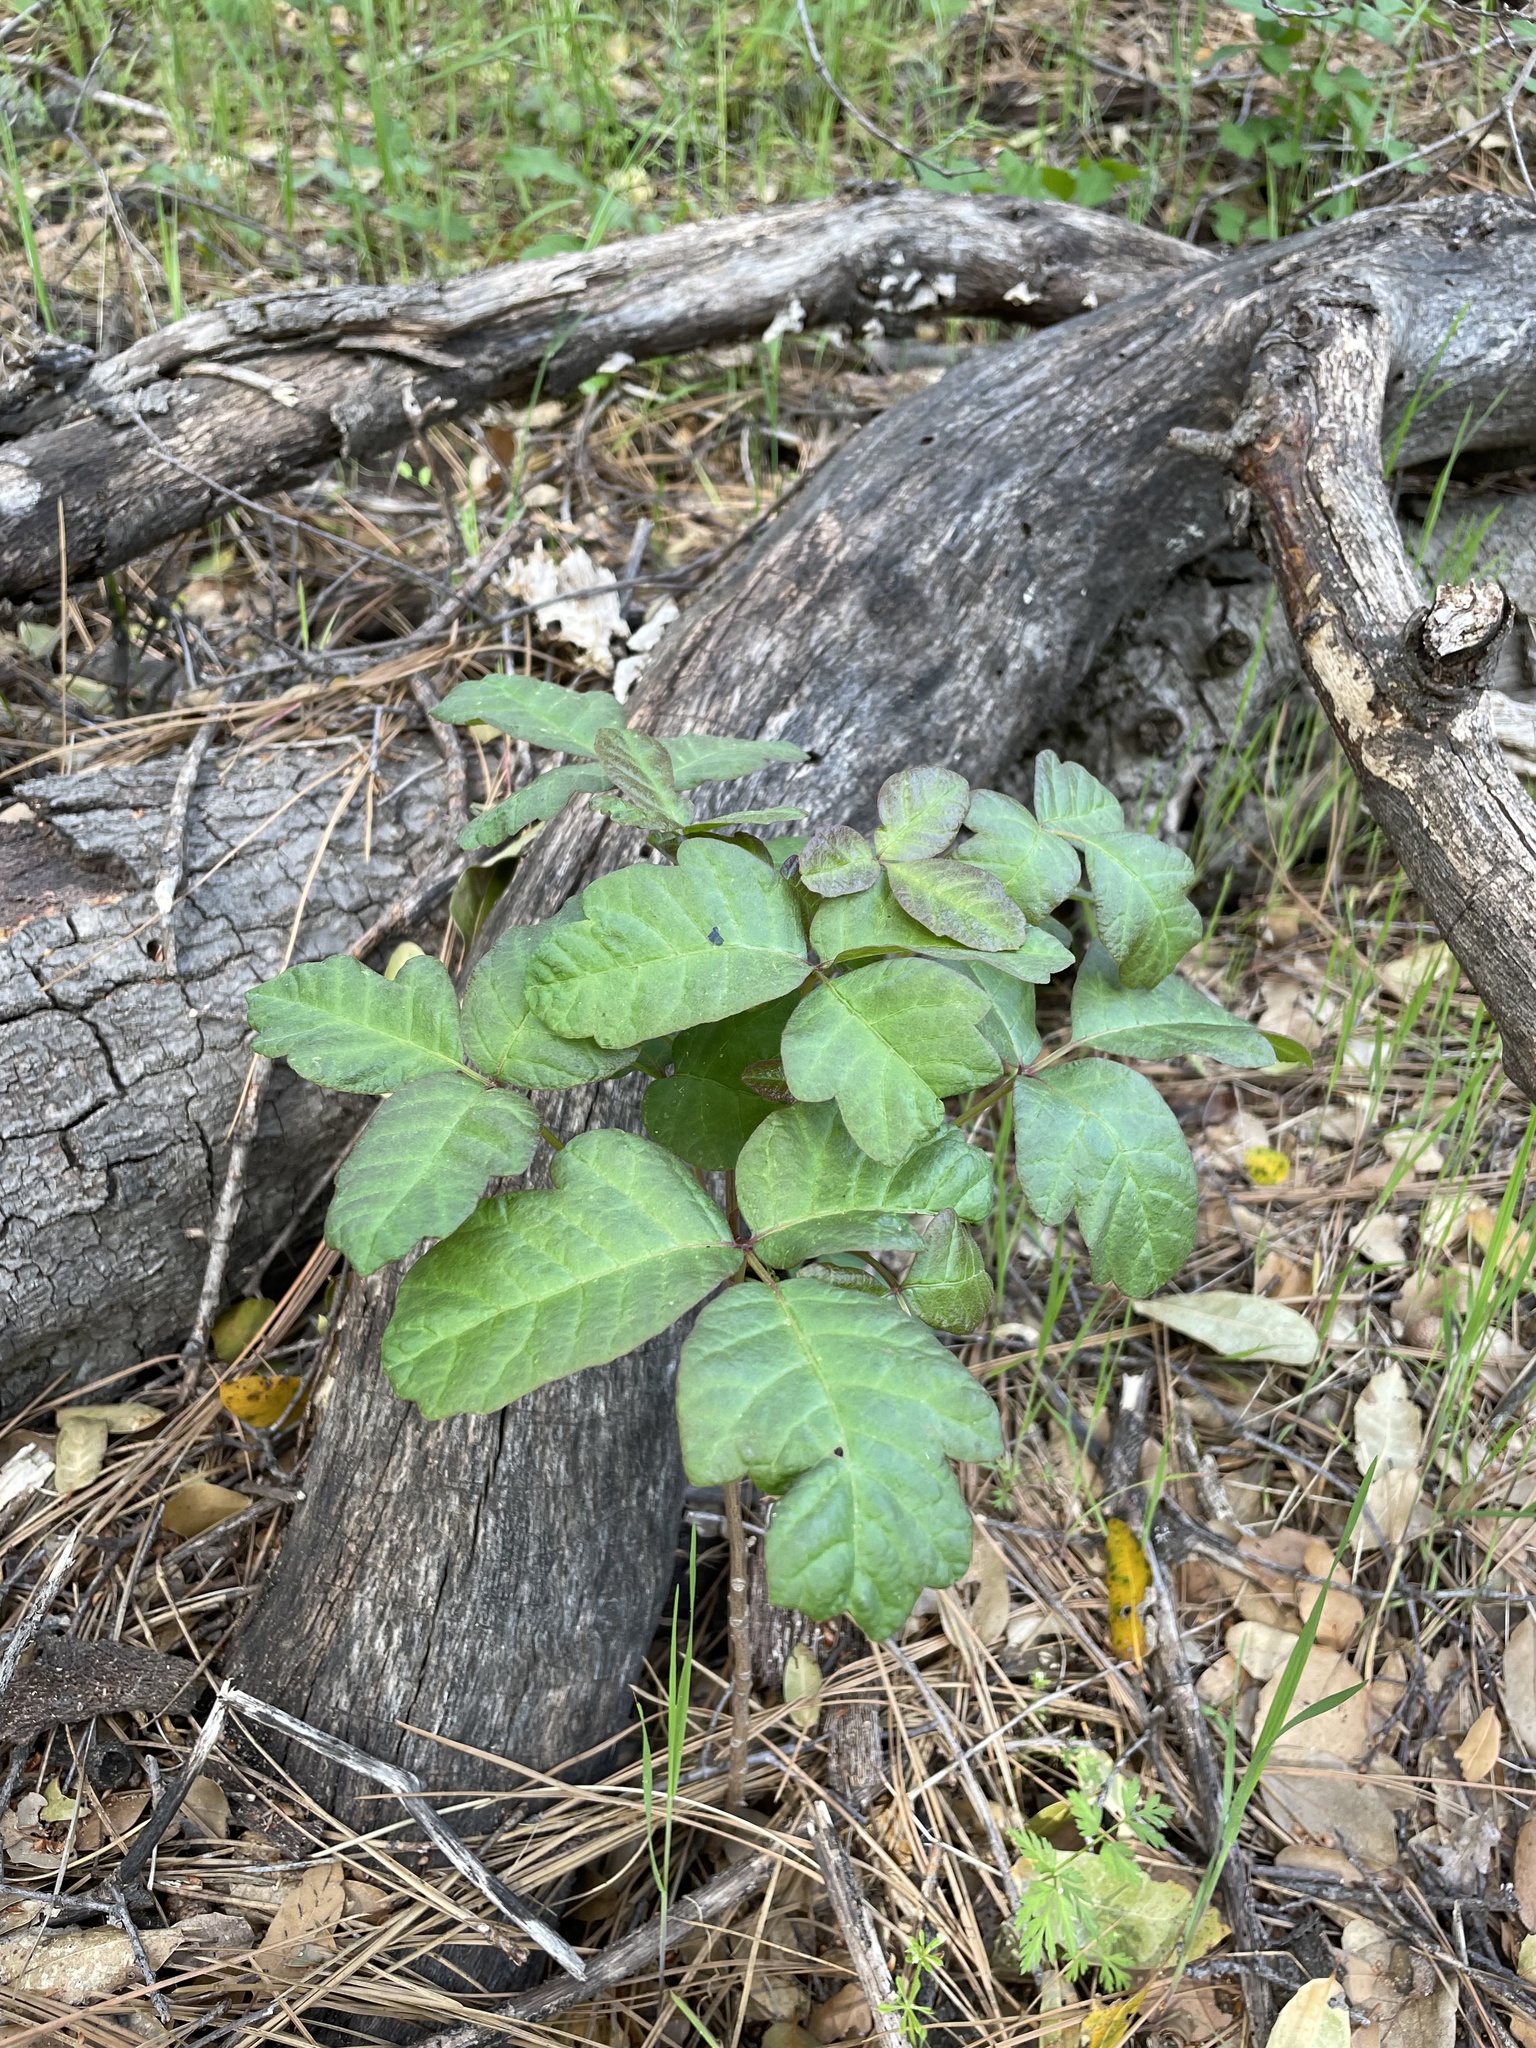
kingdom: Plantae
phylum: Tracheophyta
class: Magnoliopsida
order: Sapindales
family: Anacardiaceae
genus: Toxicodendron
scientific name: Toxicodendron diversilobum
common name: Pacific poison-oak
